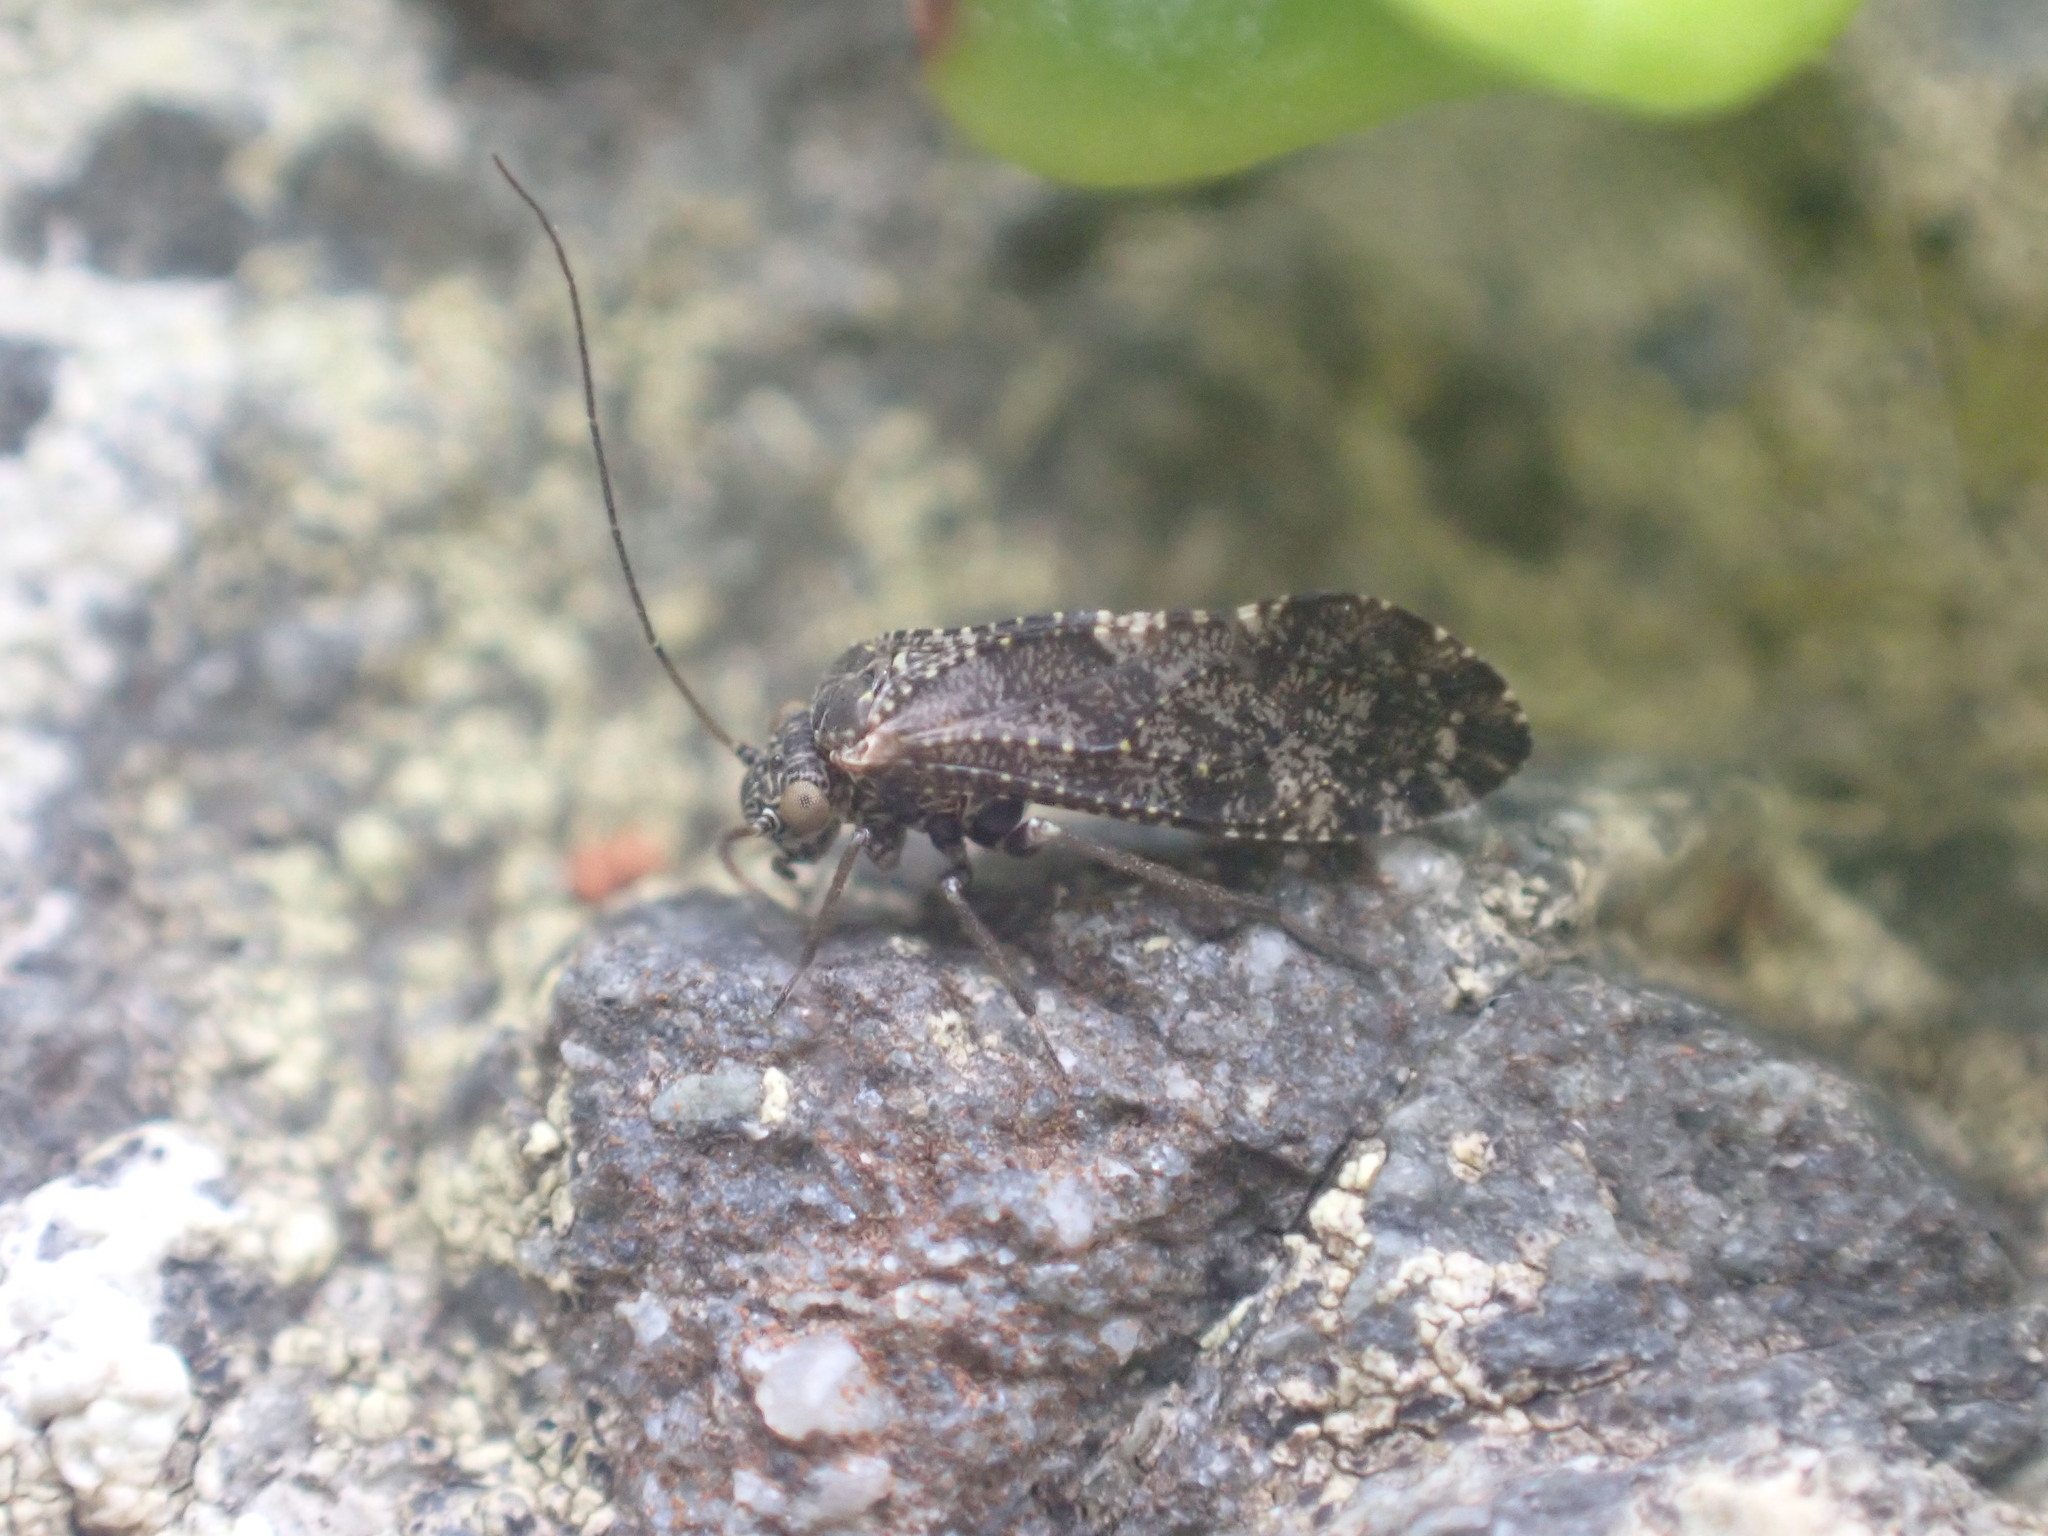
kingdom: Animalia
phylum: Arthropoda
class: Insecta
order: Psocodea
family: Myopsocidae
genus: Nimbopsocus
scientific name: Nimbopsocus australis
